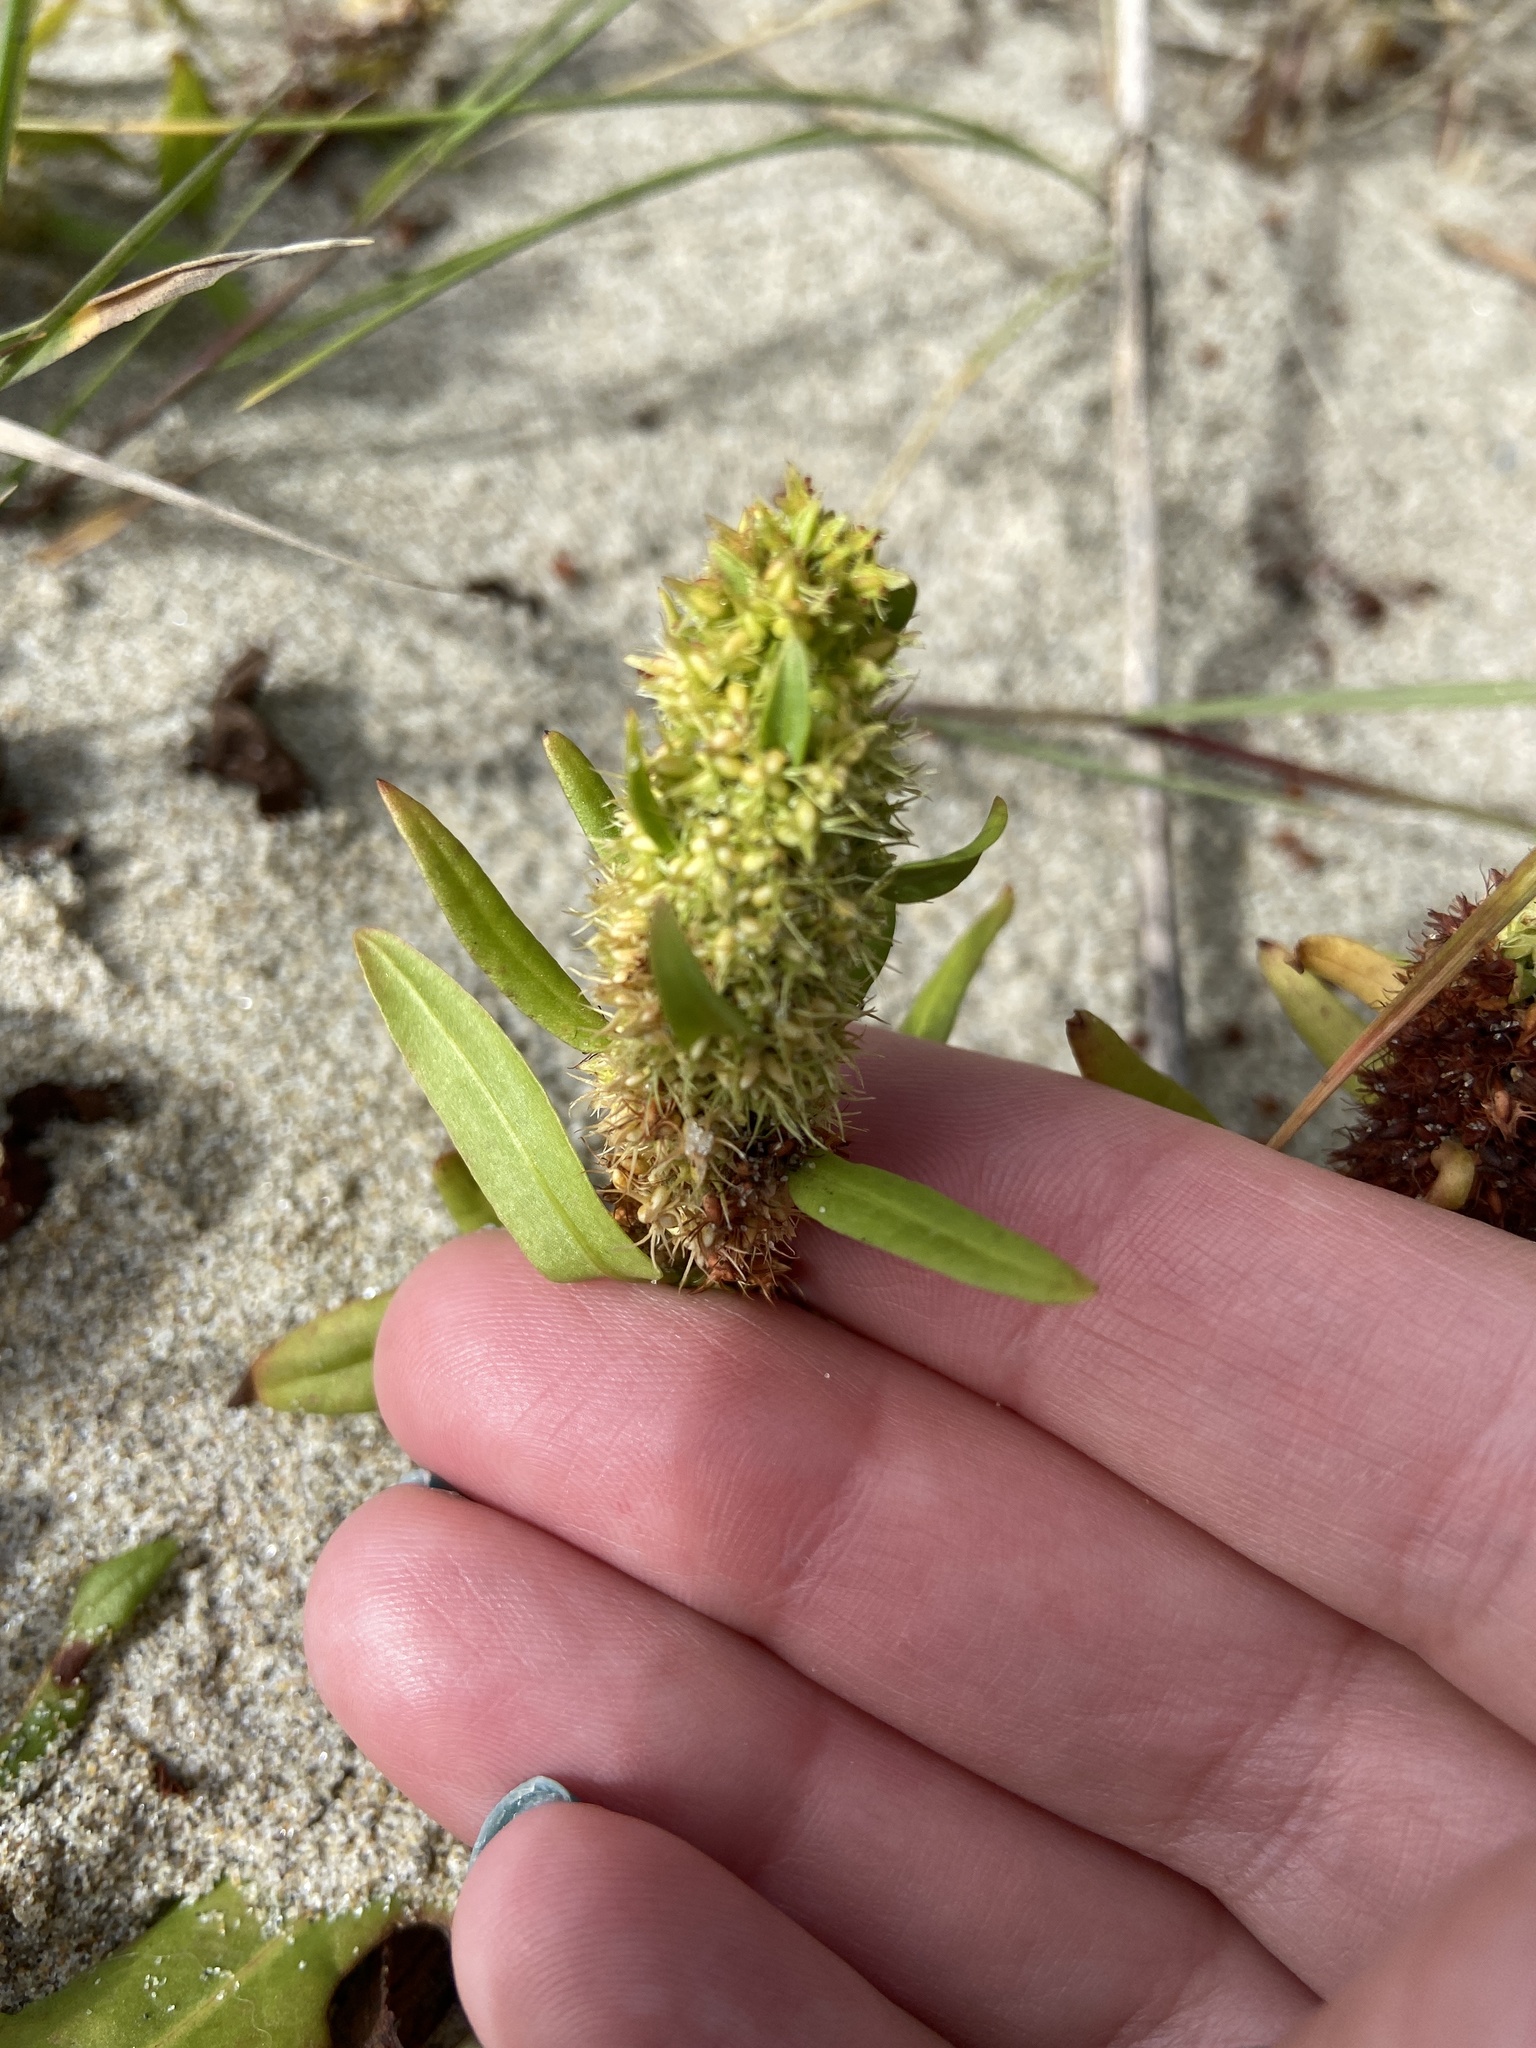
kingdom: Plantae
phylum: Tracheophyta
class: Magnoliopsida
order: Caryophyllales
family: Polygonaceae
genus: Rumex
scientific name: Rumex maritimus
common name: Golden dock
